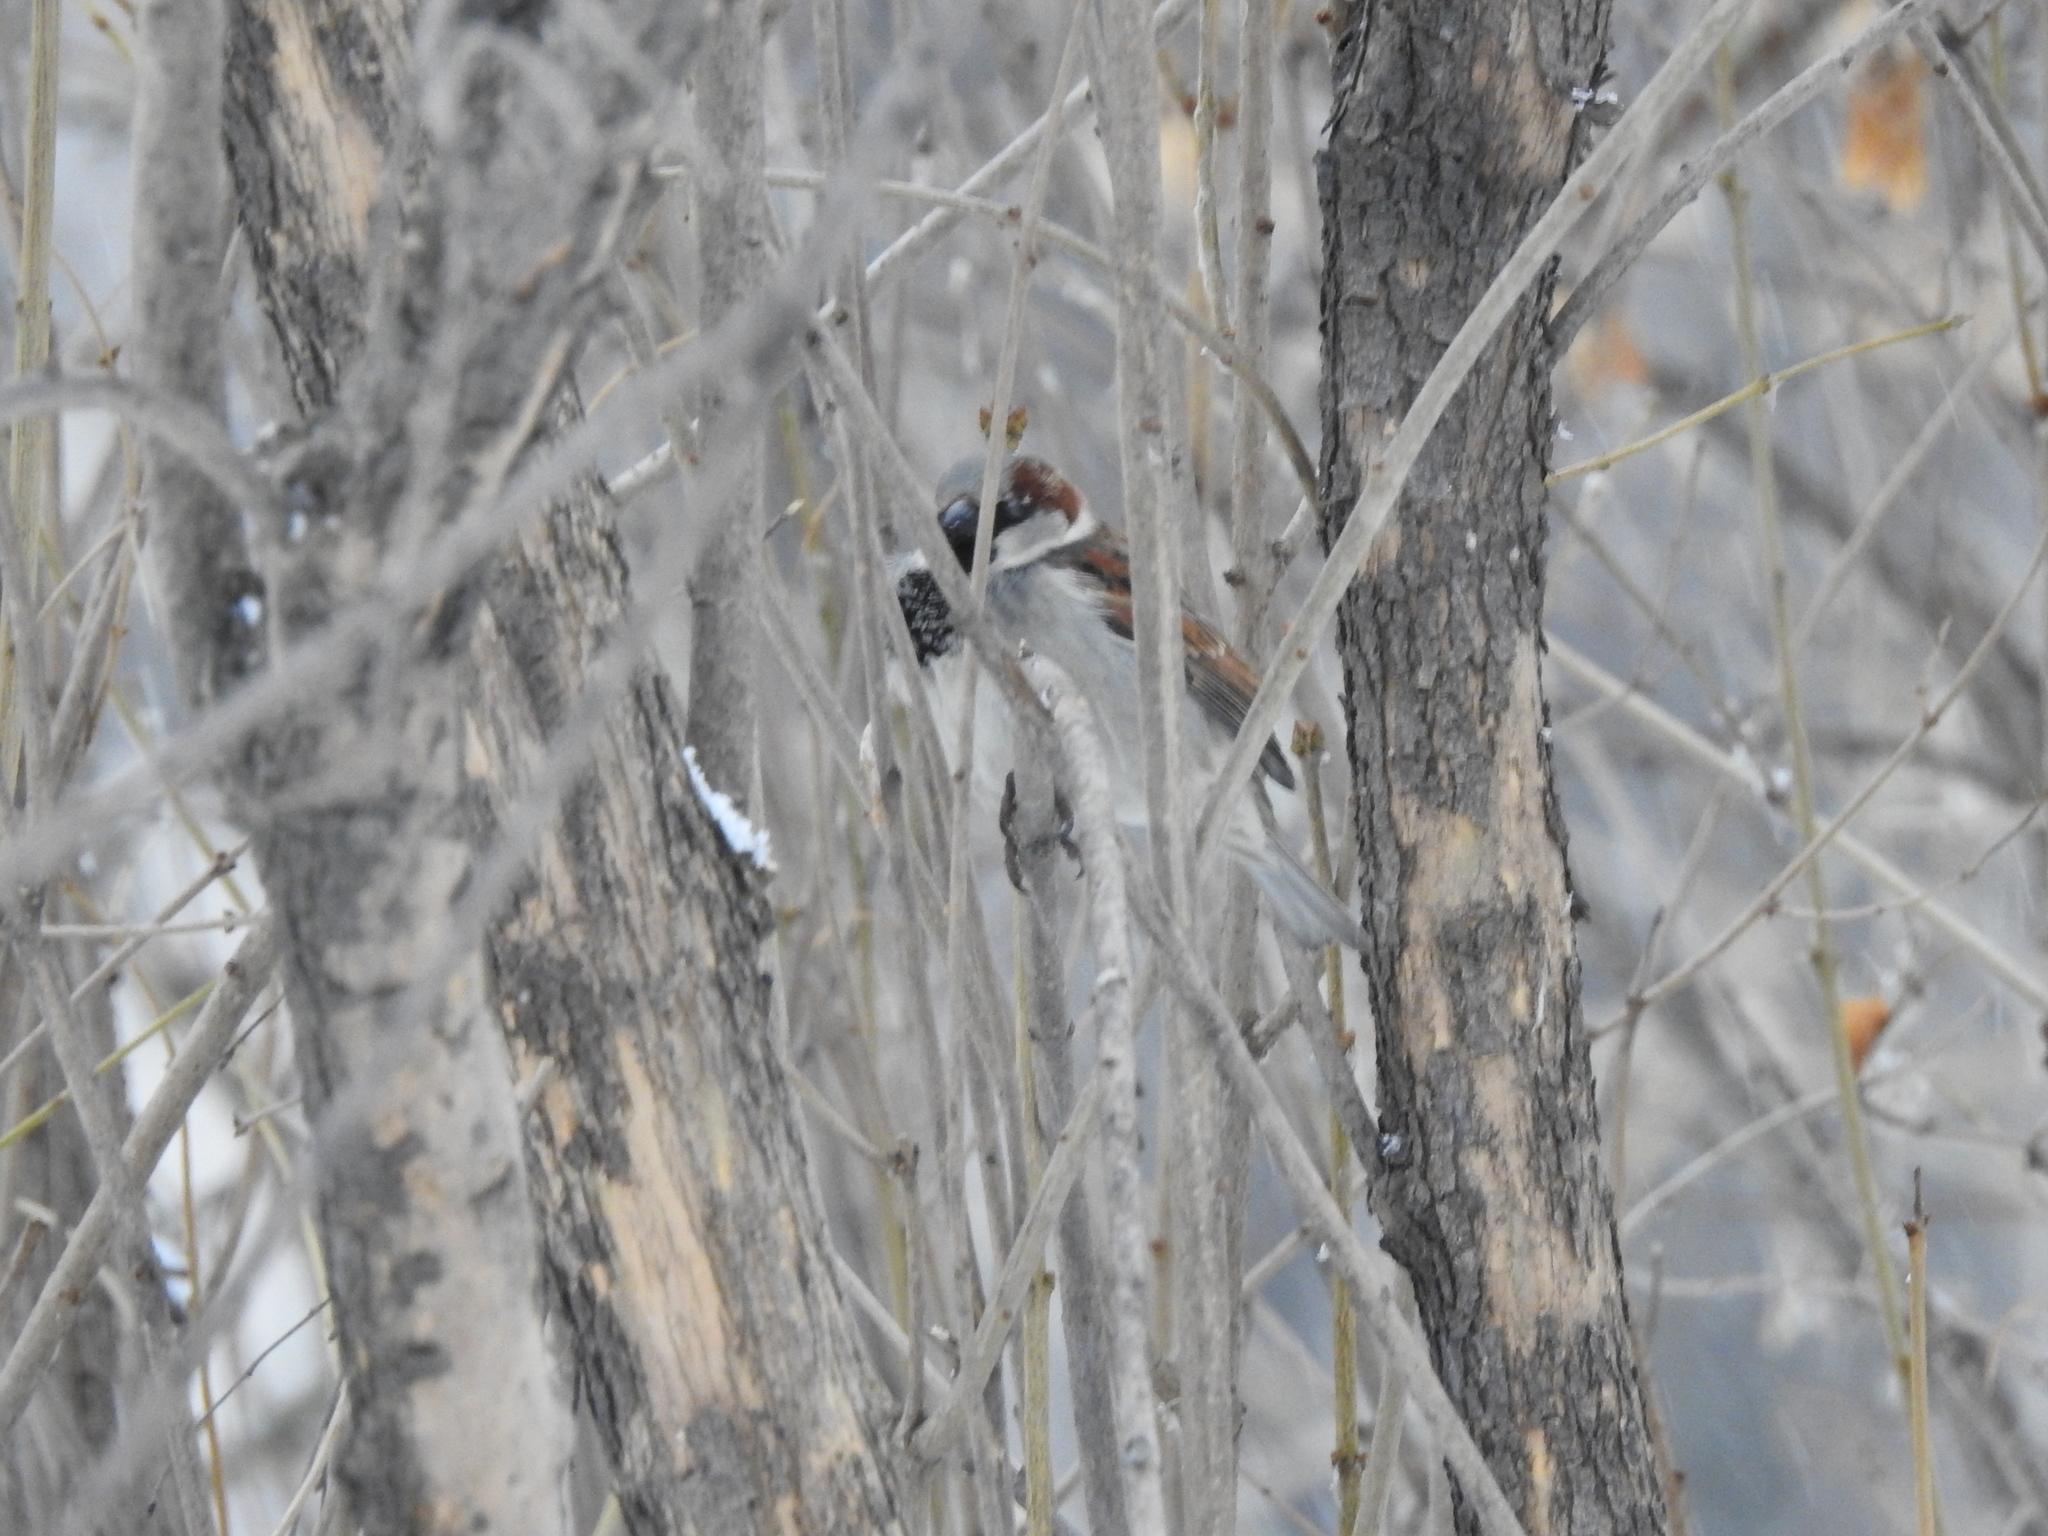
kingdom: Animalia
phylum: Chordata
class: Aves
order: Passeriformes
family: Passeridae
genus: Passer
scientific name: Passer domesticus
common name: House sparrow
